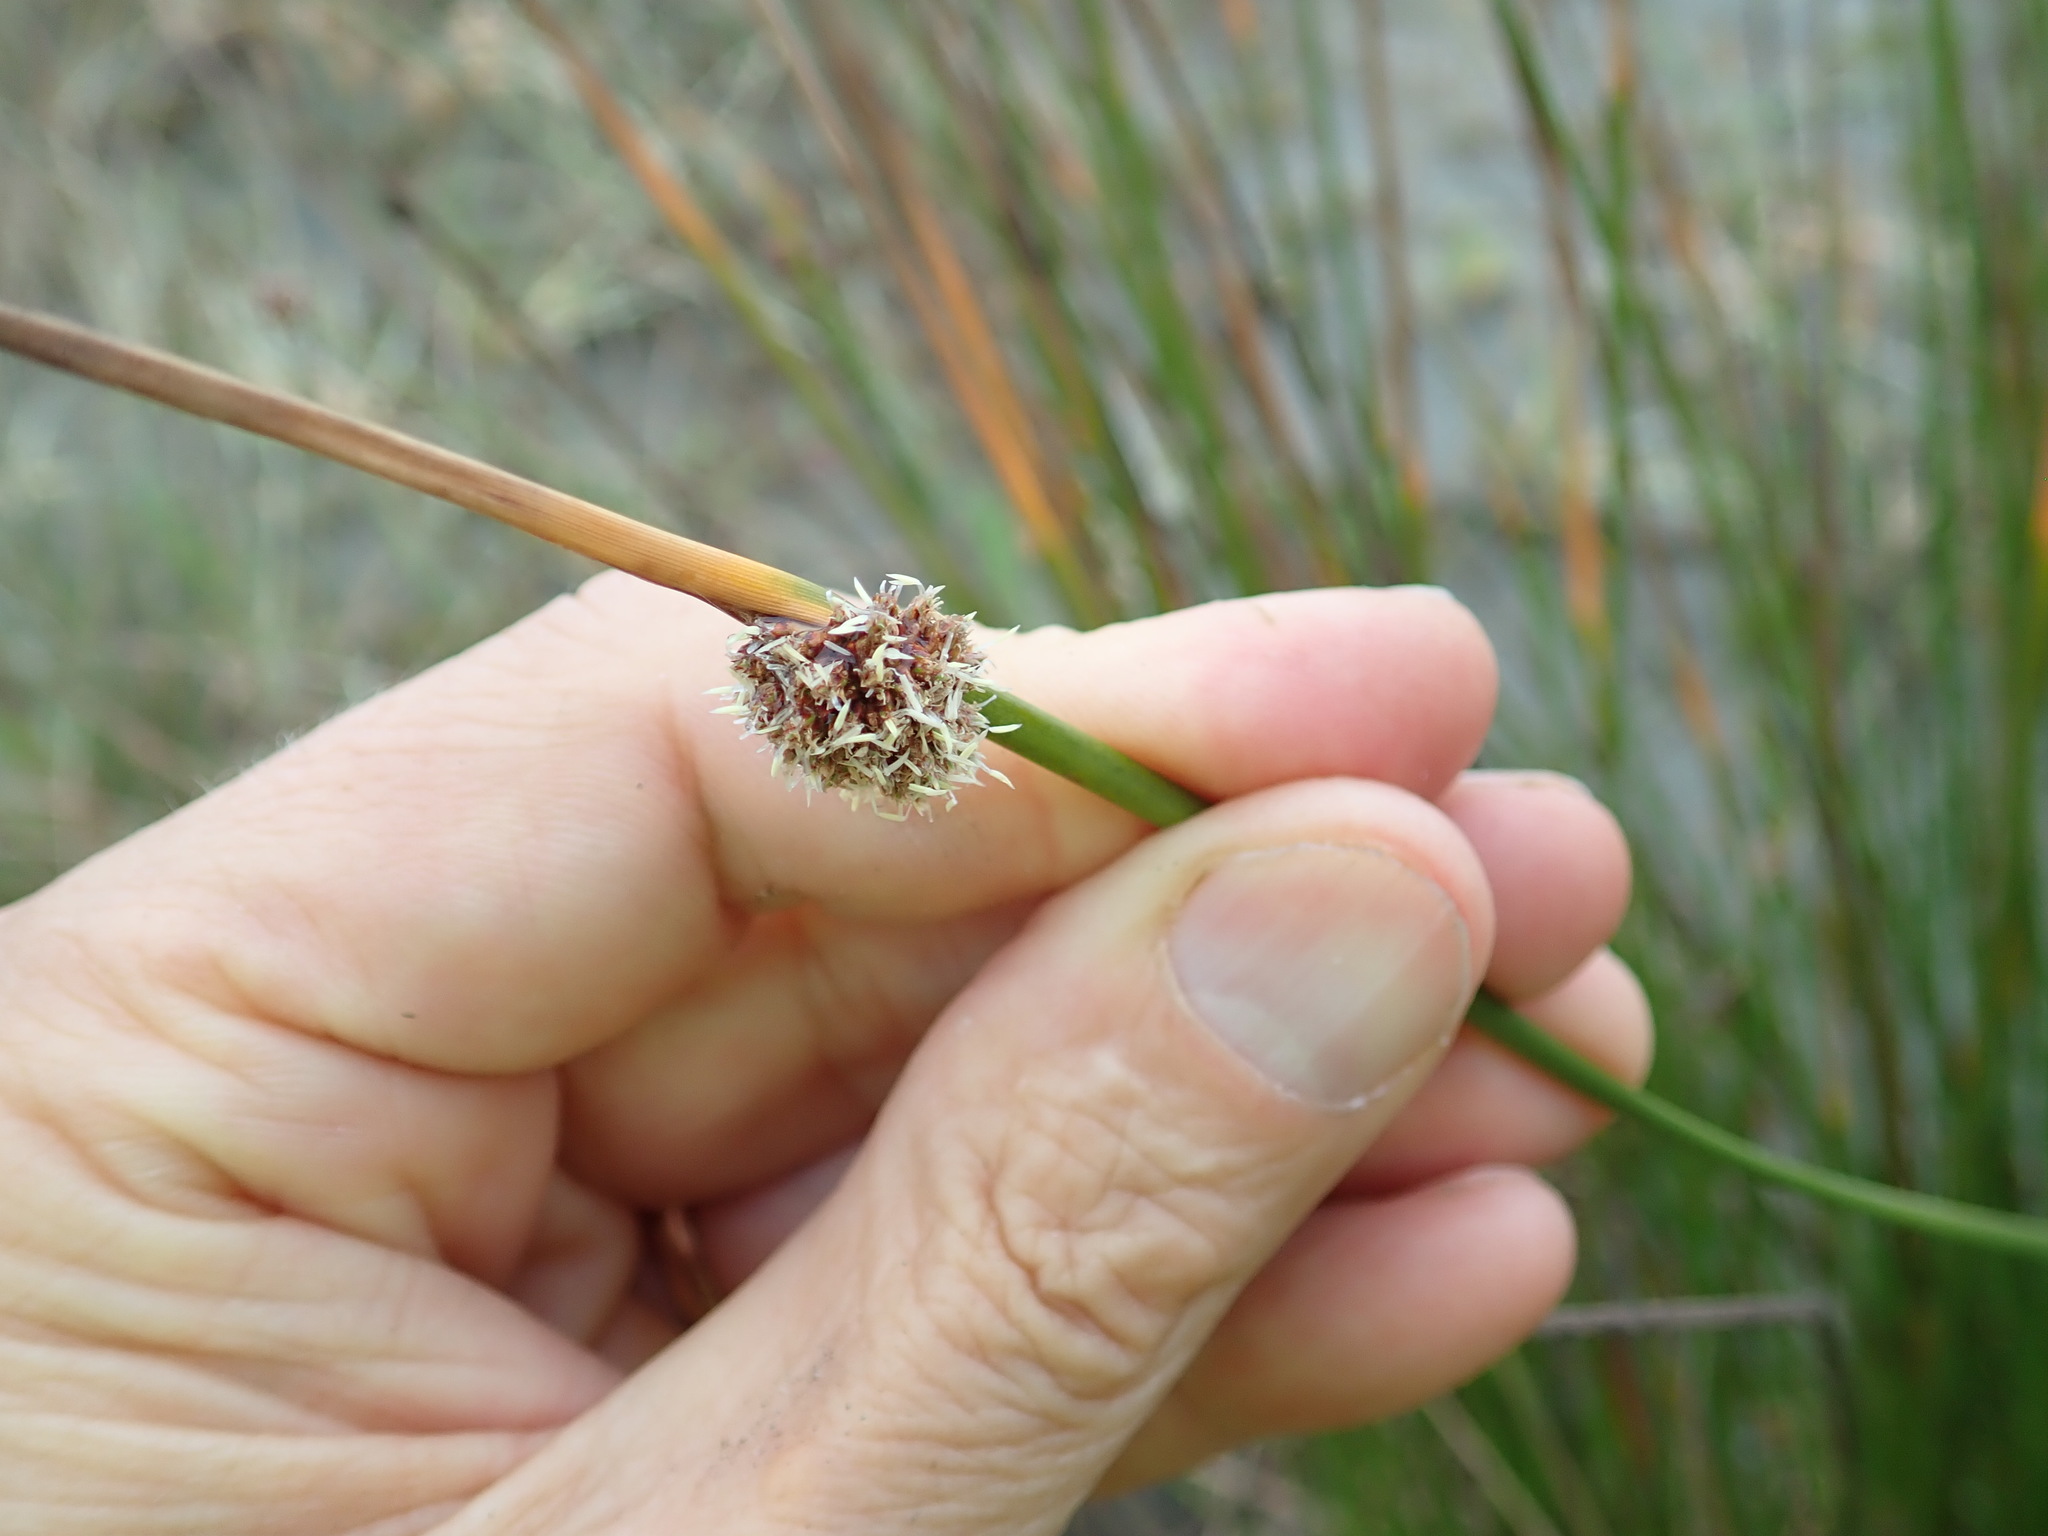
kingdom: Plantae
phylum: Tracheophyta
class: Liliopsida
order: Poales
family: Cyperaceae
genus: Ficinia
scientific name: Ficinia nodosa
